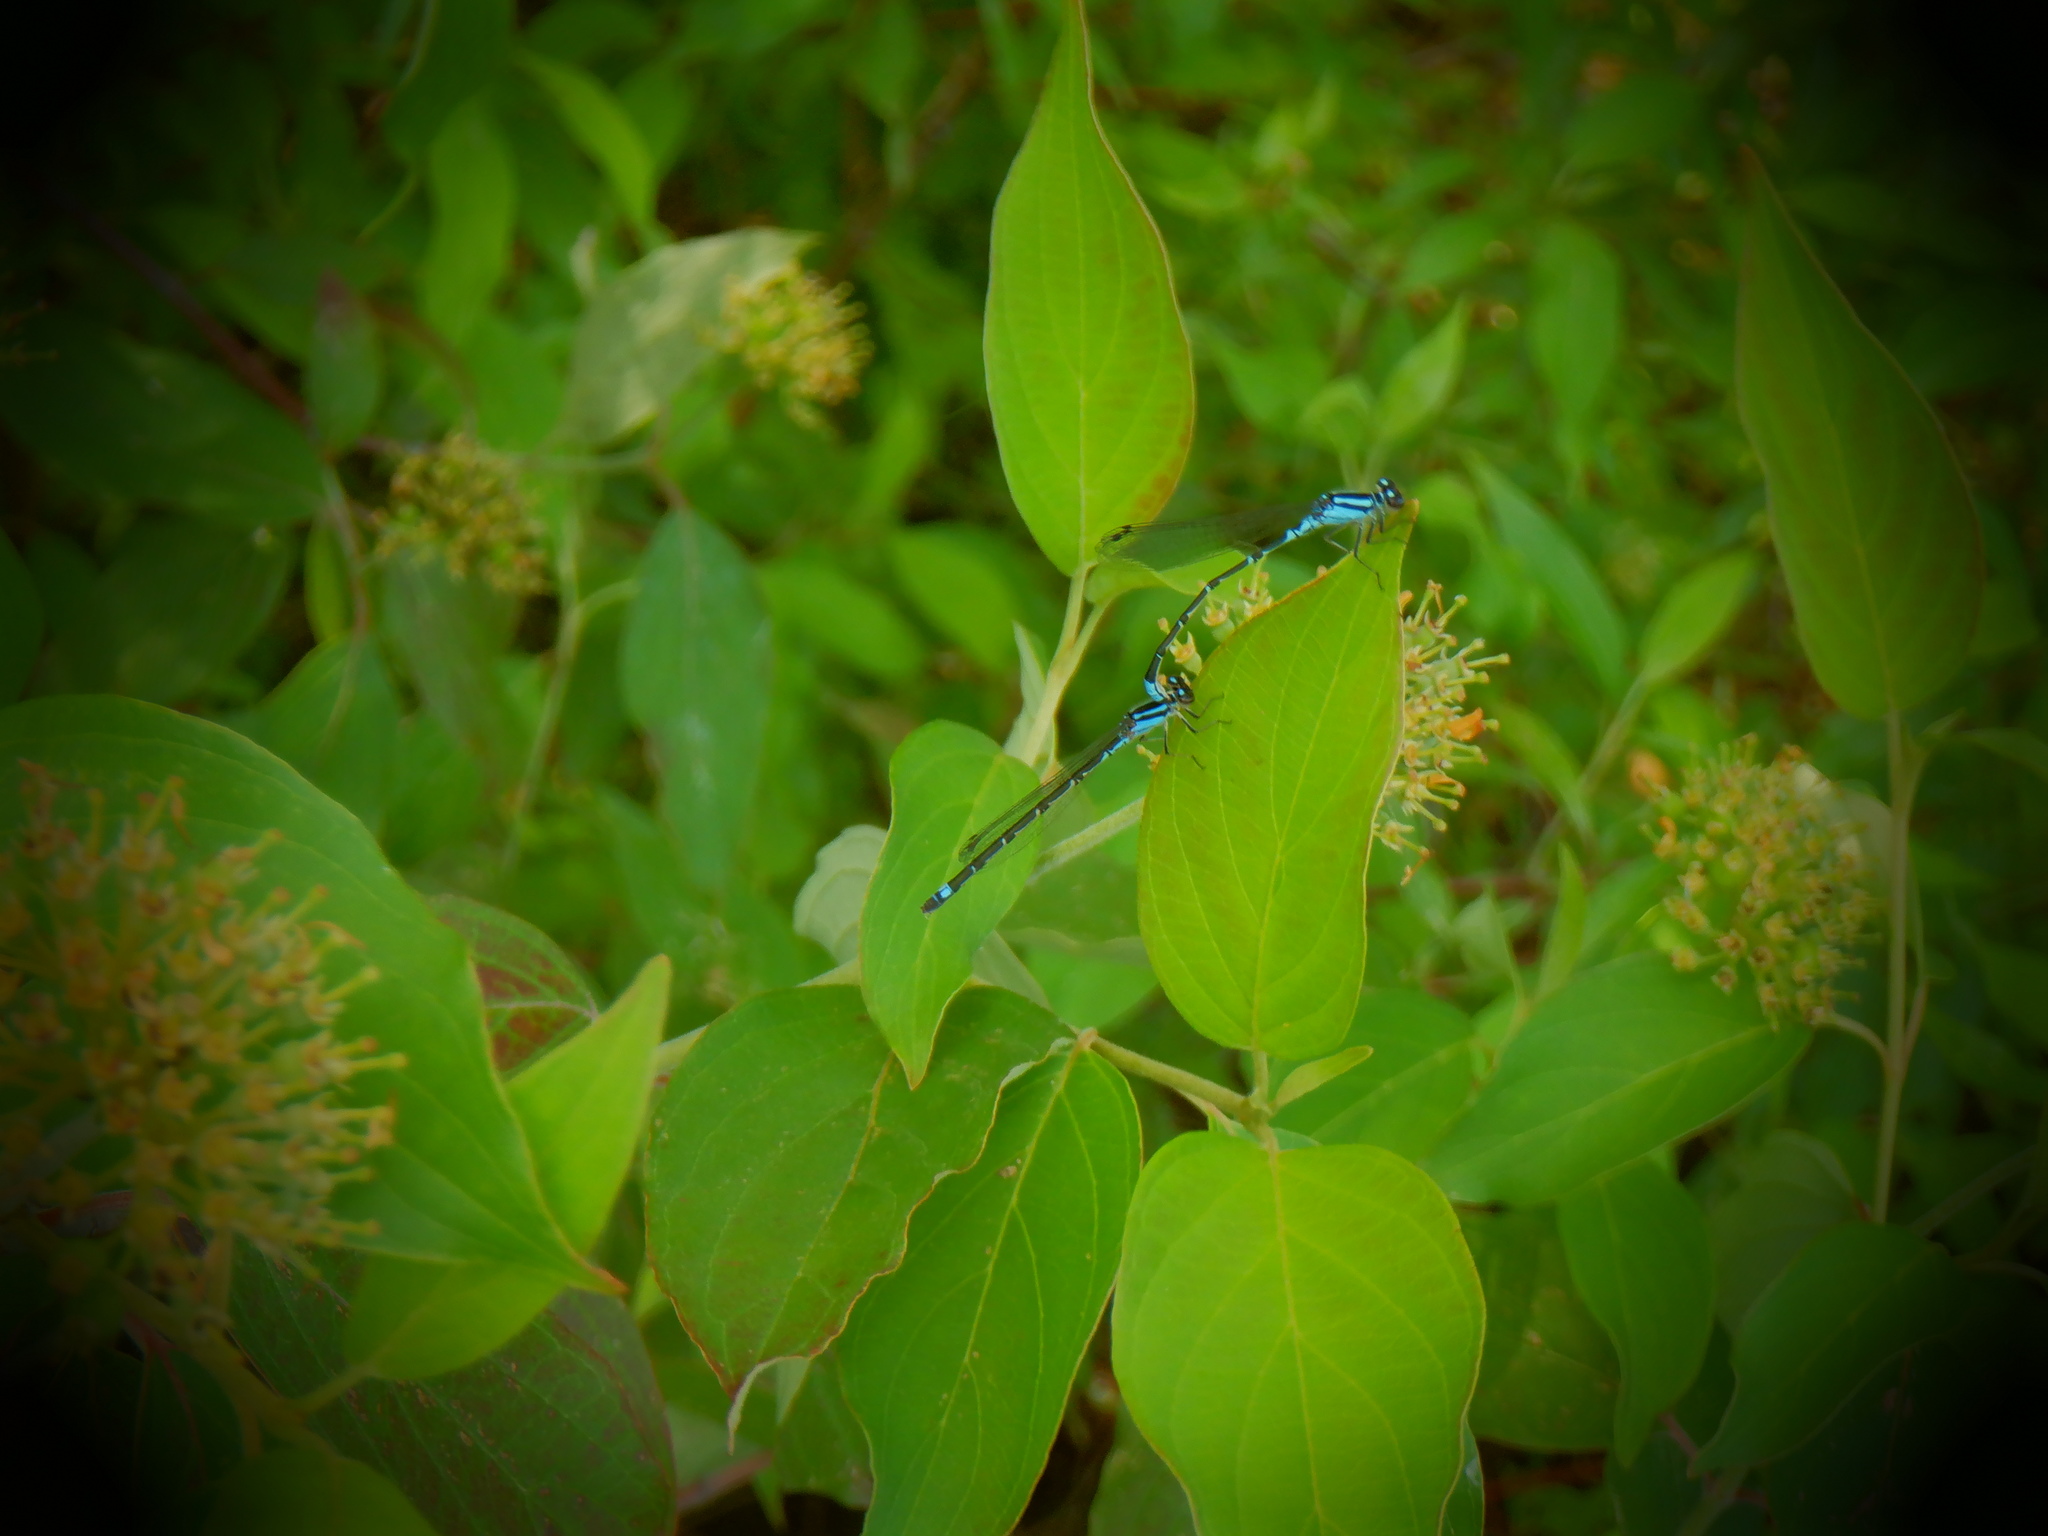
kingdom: Animalia
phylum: Arthropoda
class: Insecta
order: Odonata
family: Coenagrionidae
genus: Enallagma
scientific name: Enallagma geminatum
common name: Skimming bluet
